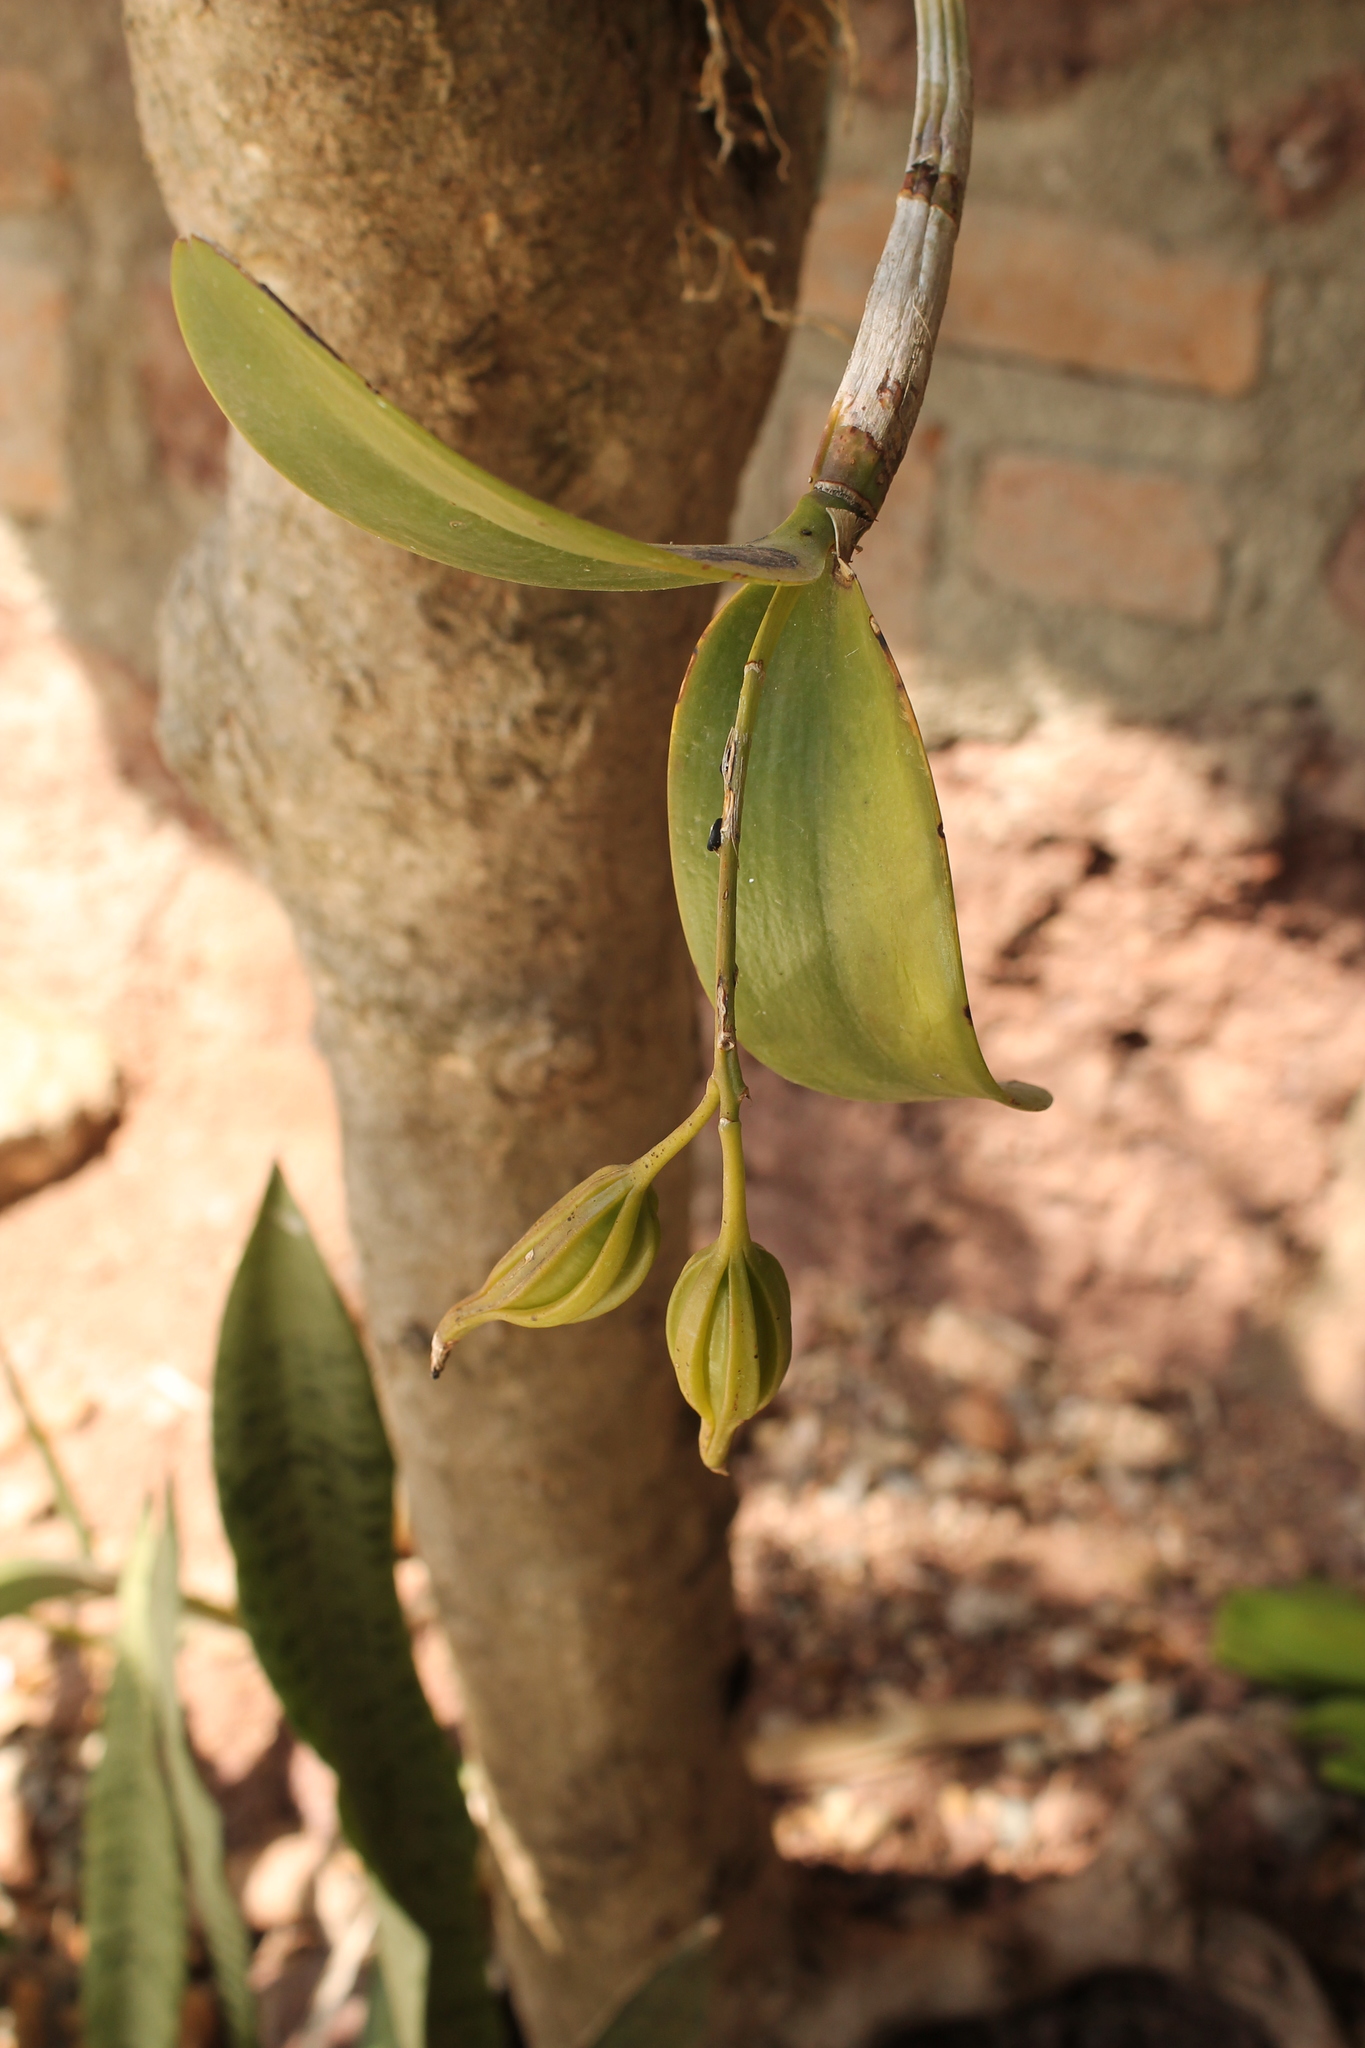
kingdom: Plantae
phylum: Tracheophyta
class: Liliopsida
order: Asparagales
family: Orchidaceae
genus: Guarianthe
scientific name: Guarianthe aurantiaca
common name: Orange cattleya
